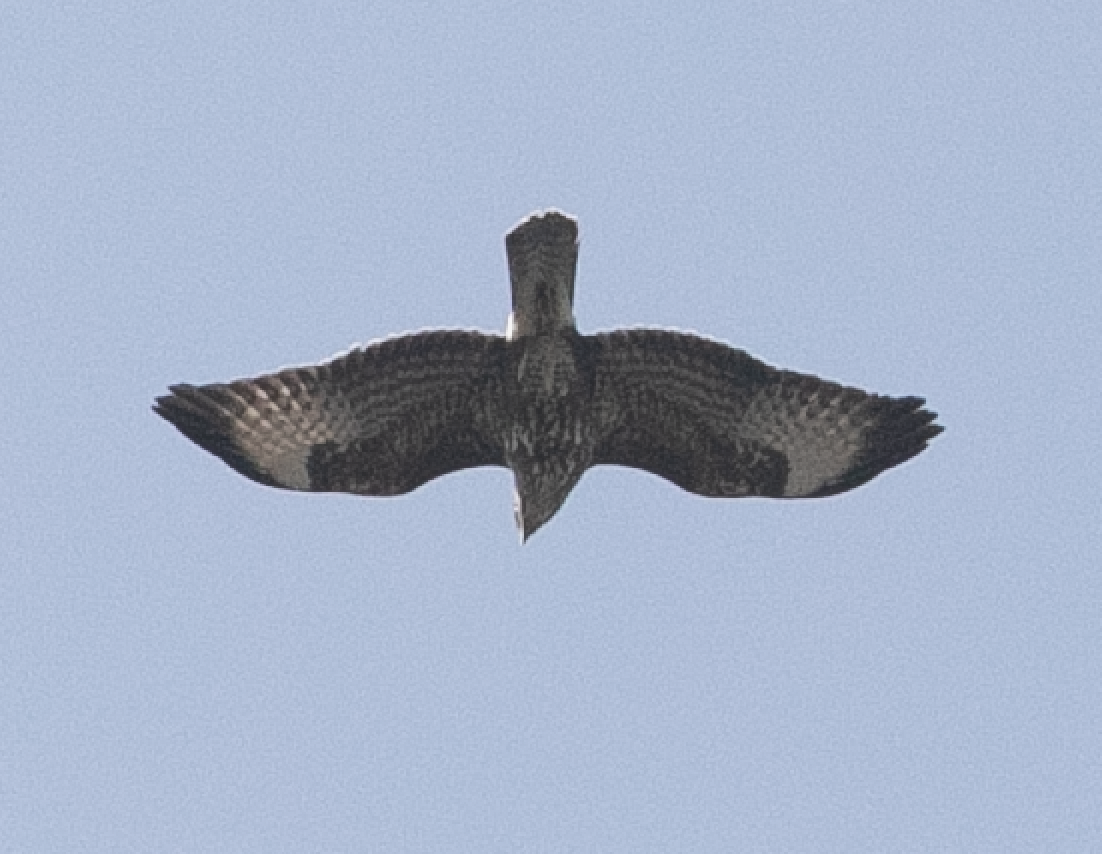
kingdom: Animalia
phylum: Chordata
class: Aves
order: Accipitriformes
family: Accipitridae
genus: Buteo
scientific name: Buteo buteo
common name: Common buzzard
